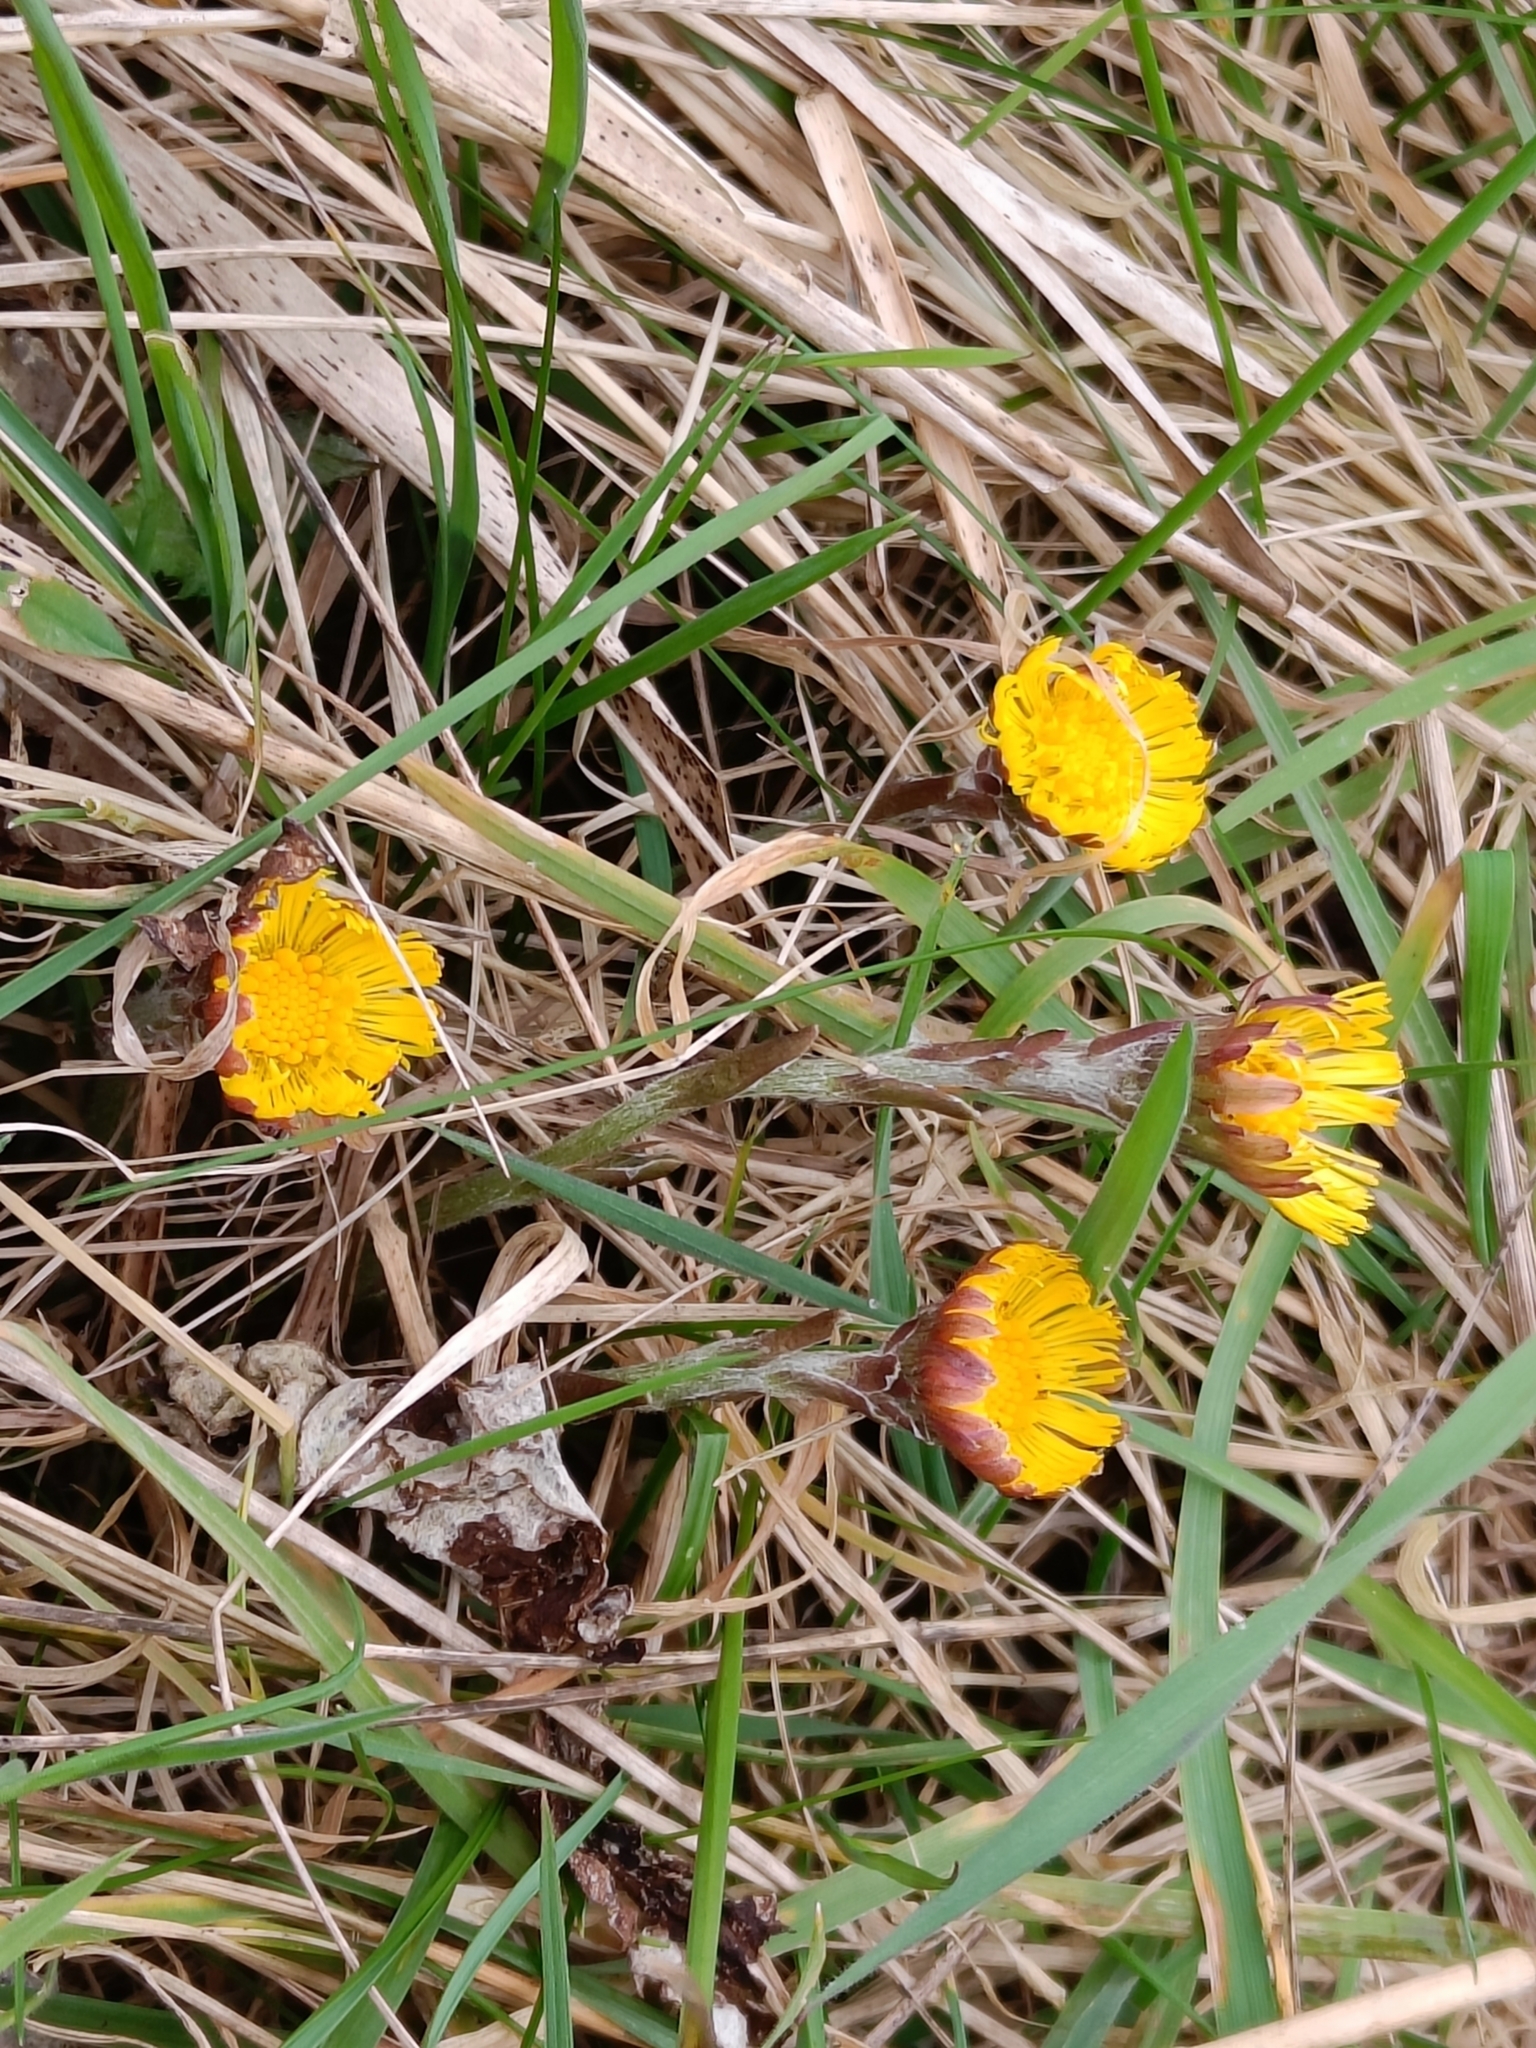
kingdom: Plantae
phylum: Tracheophyta
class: Magnoliopsida
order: Asterales
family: Asteraceae
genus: Tussilago
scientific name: Tussilago farfara
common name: Coltsfoot
